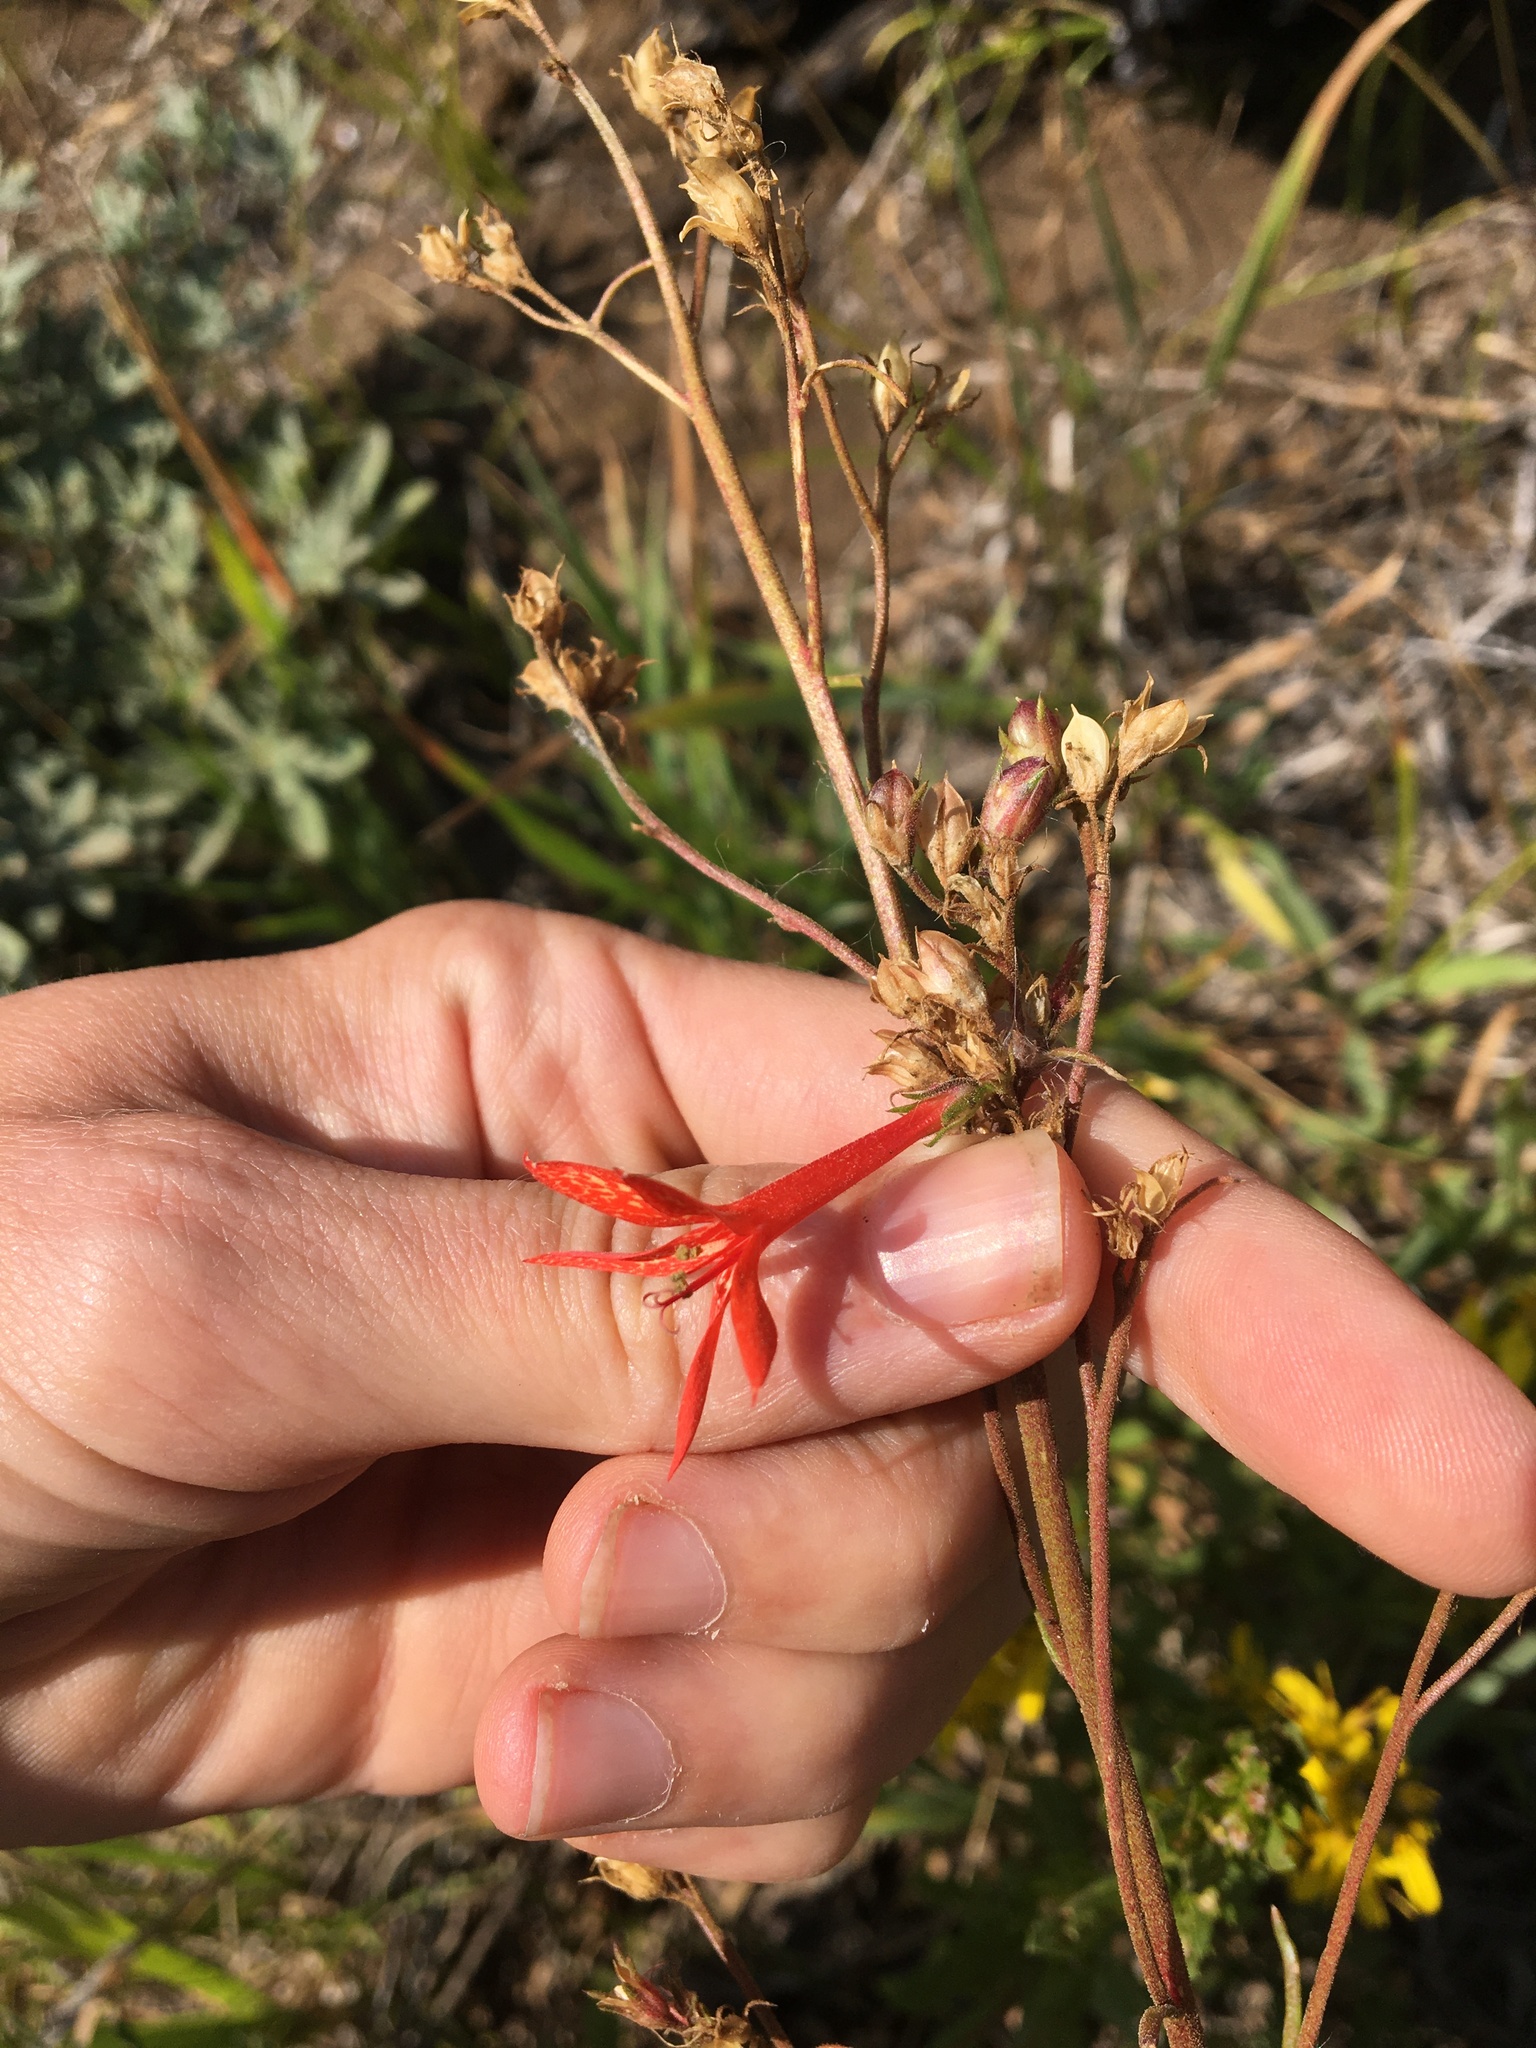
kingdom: Plantae
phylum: Tracheophyta
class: Magnoliopsida
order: Ericales
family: Polemoniaceae
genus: Ipomopsis
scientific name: Ipomopsis aggregata
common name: Scarlet gilia
